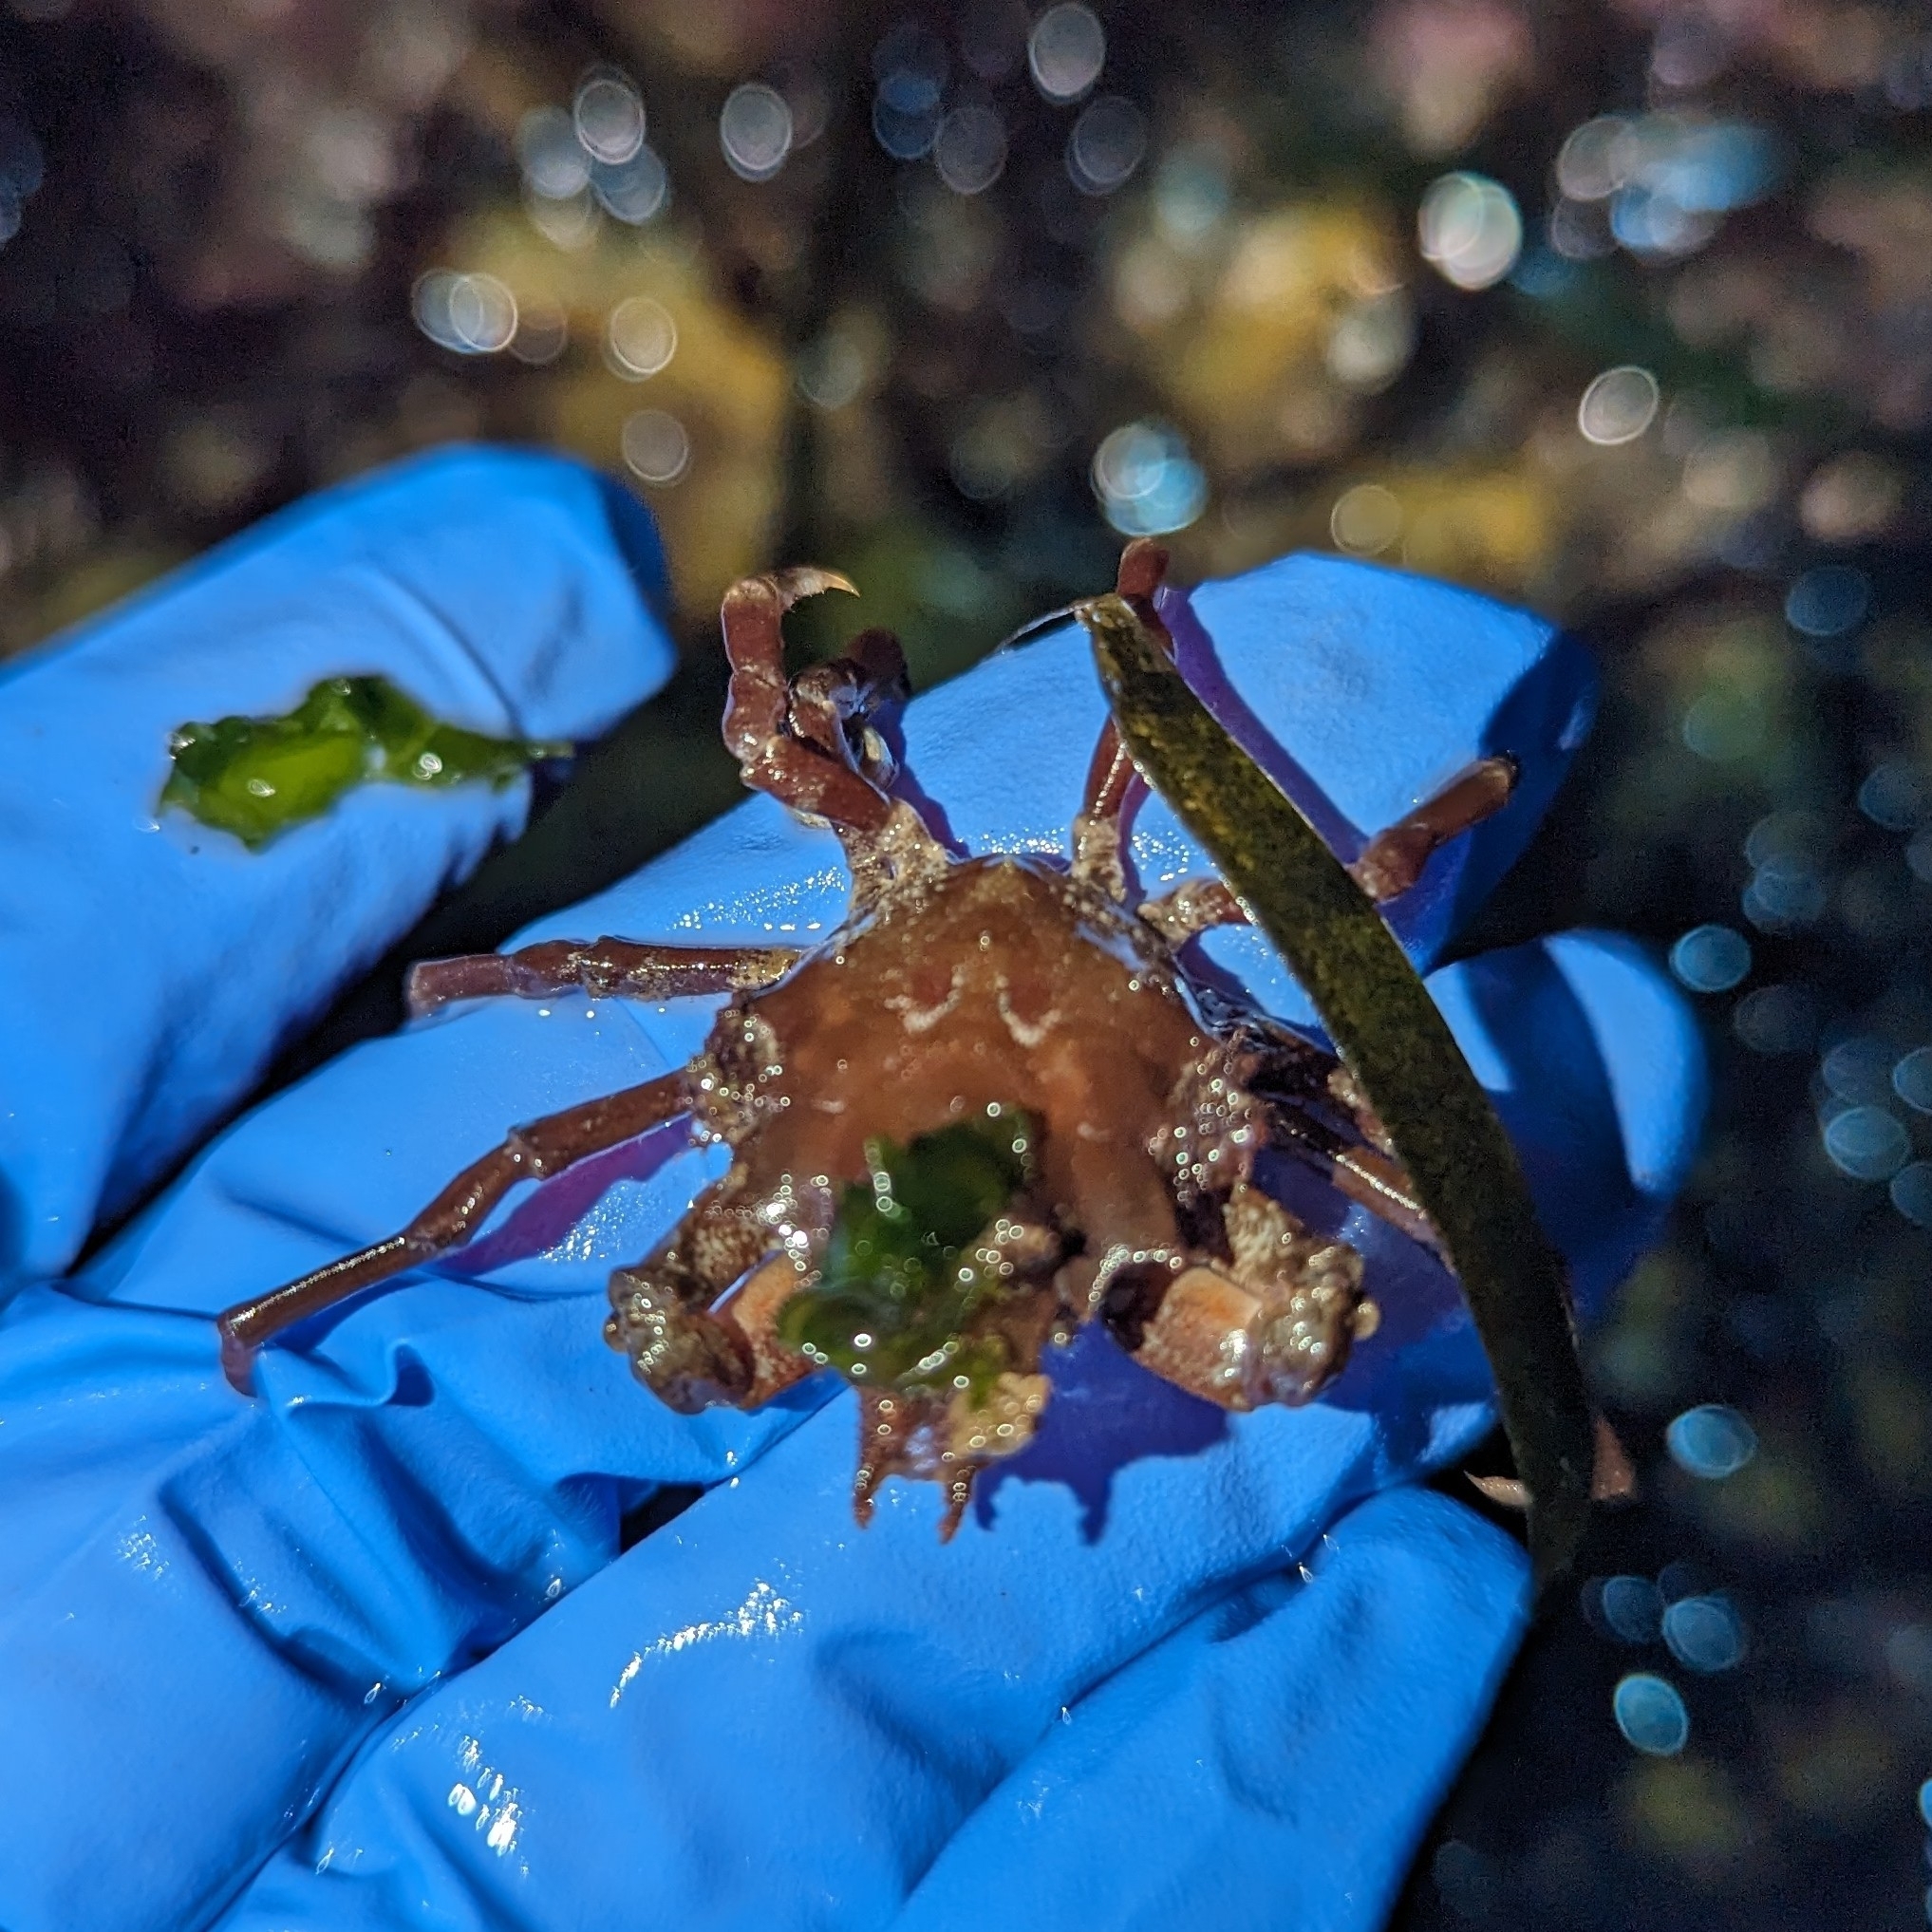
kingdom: Animalia
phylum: Arthropoda
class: Malacostraca
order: Decapoda
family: Epialtidae
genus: Pugettia
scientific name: Pugettia gracilis
